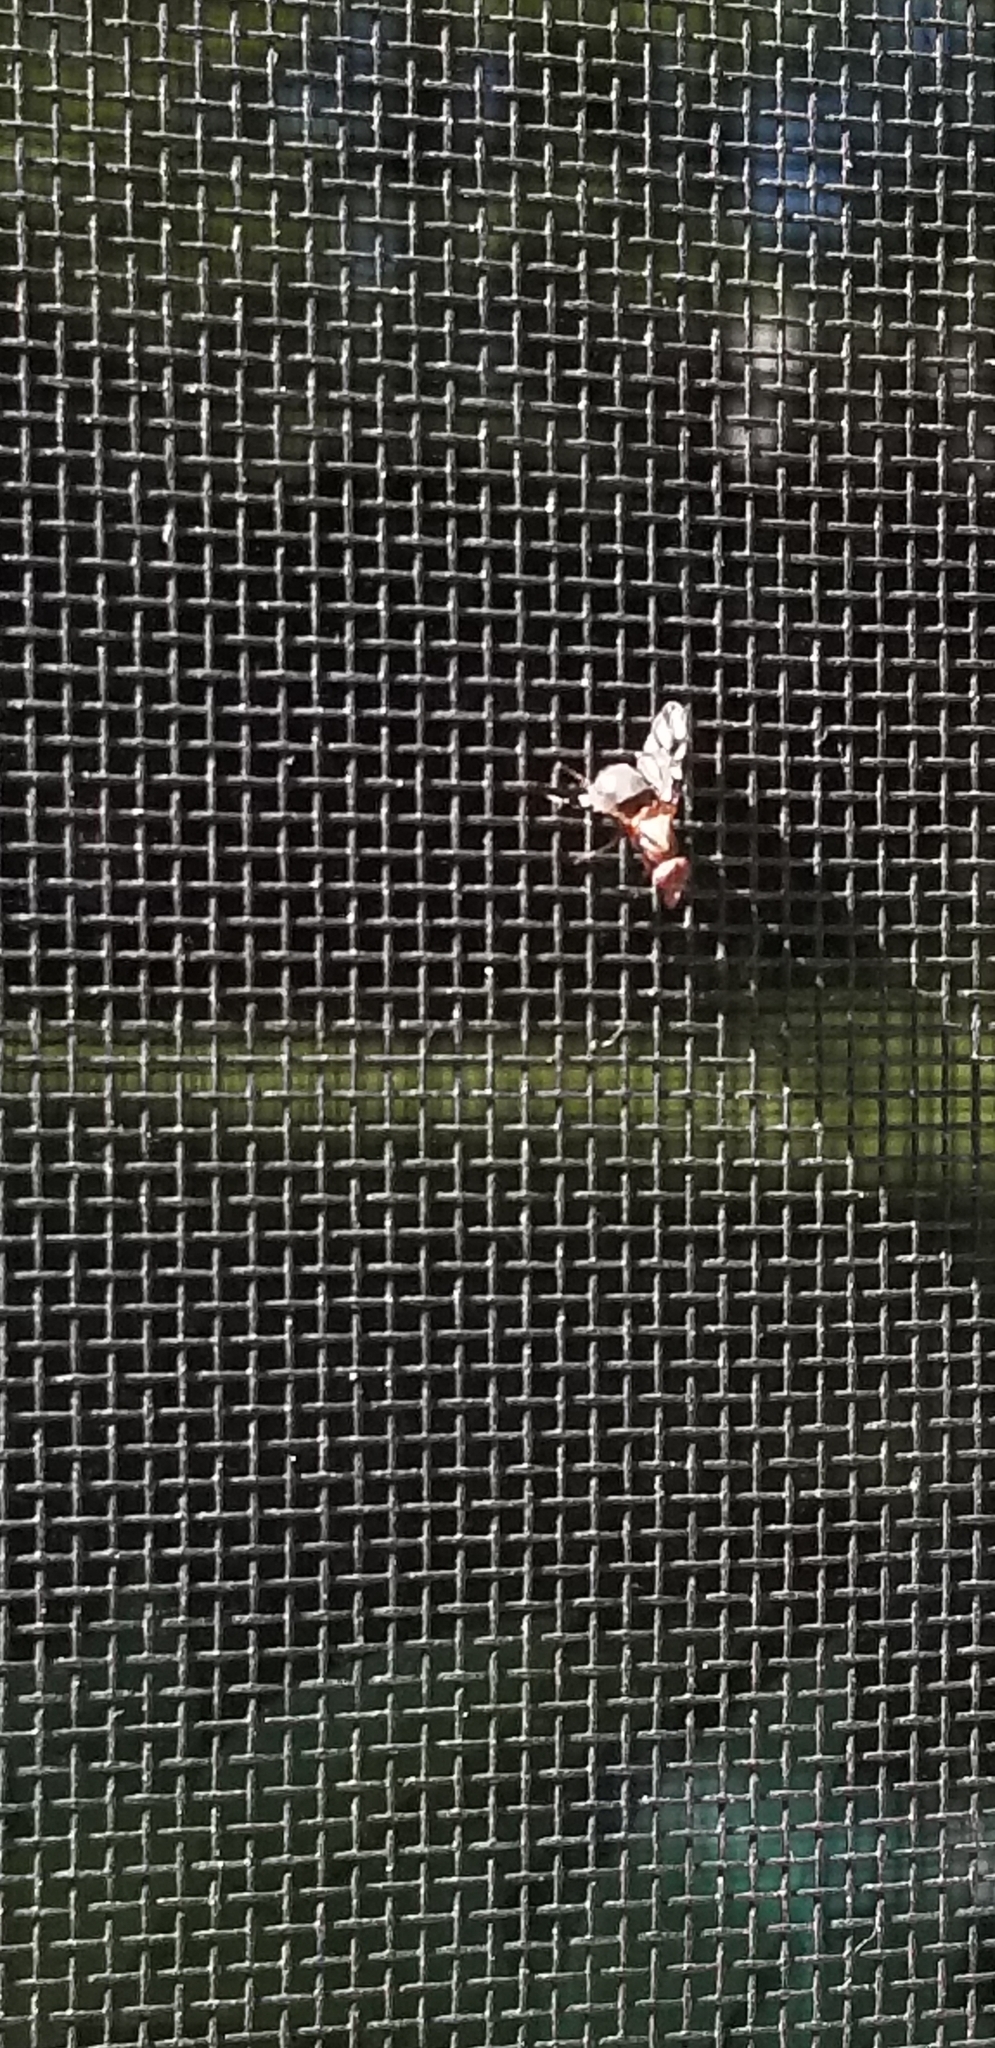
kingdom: Animalia
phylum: Arthropoda
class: Insecta
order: Diptera
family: Ulidiidae
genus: Delphinia
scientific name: Delphinia picta
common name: Common picture-winged fly
